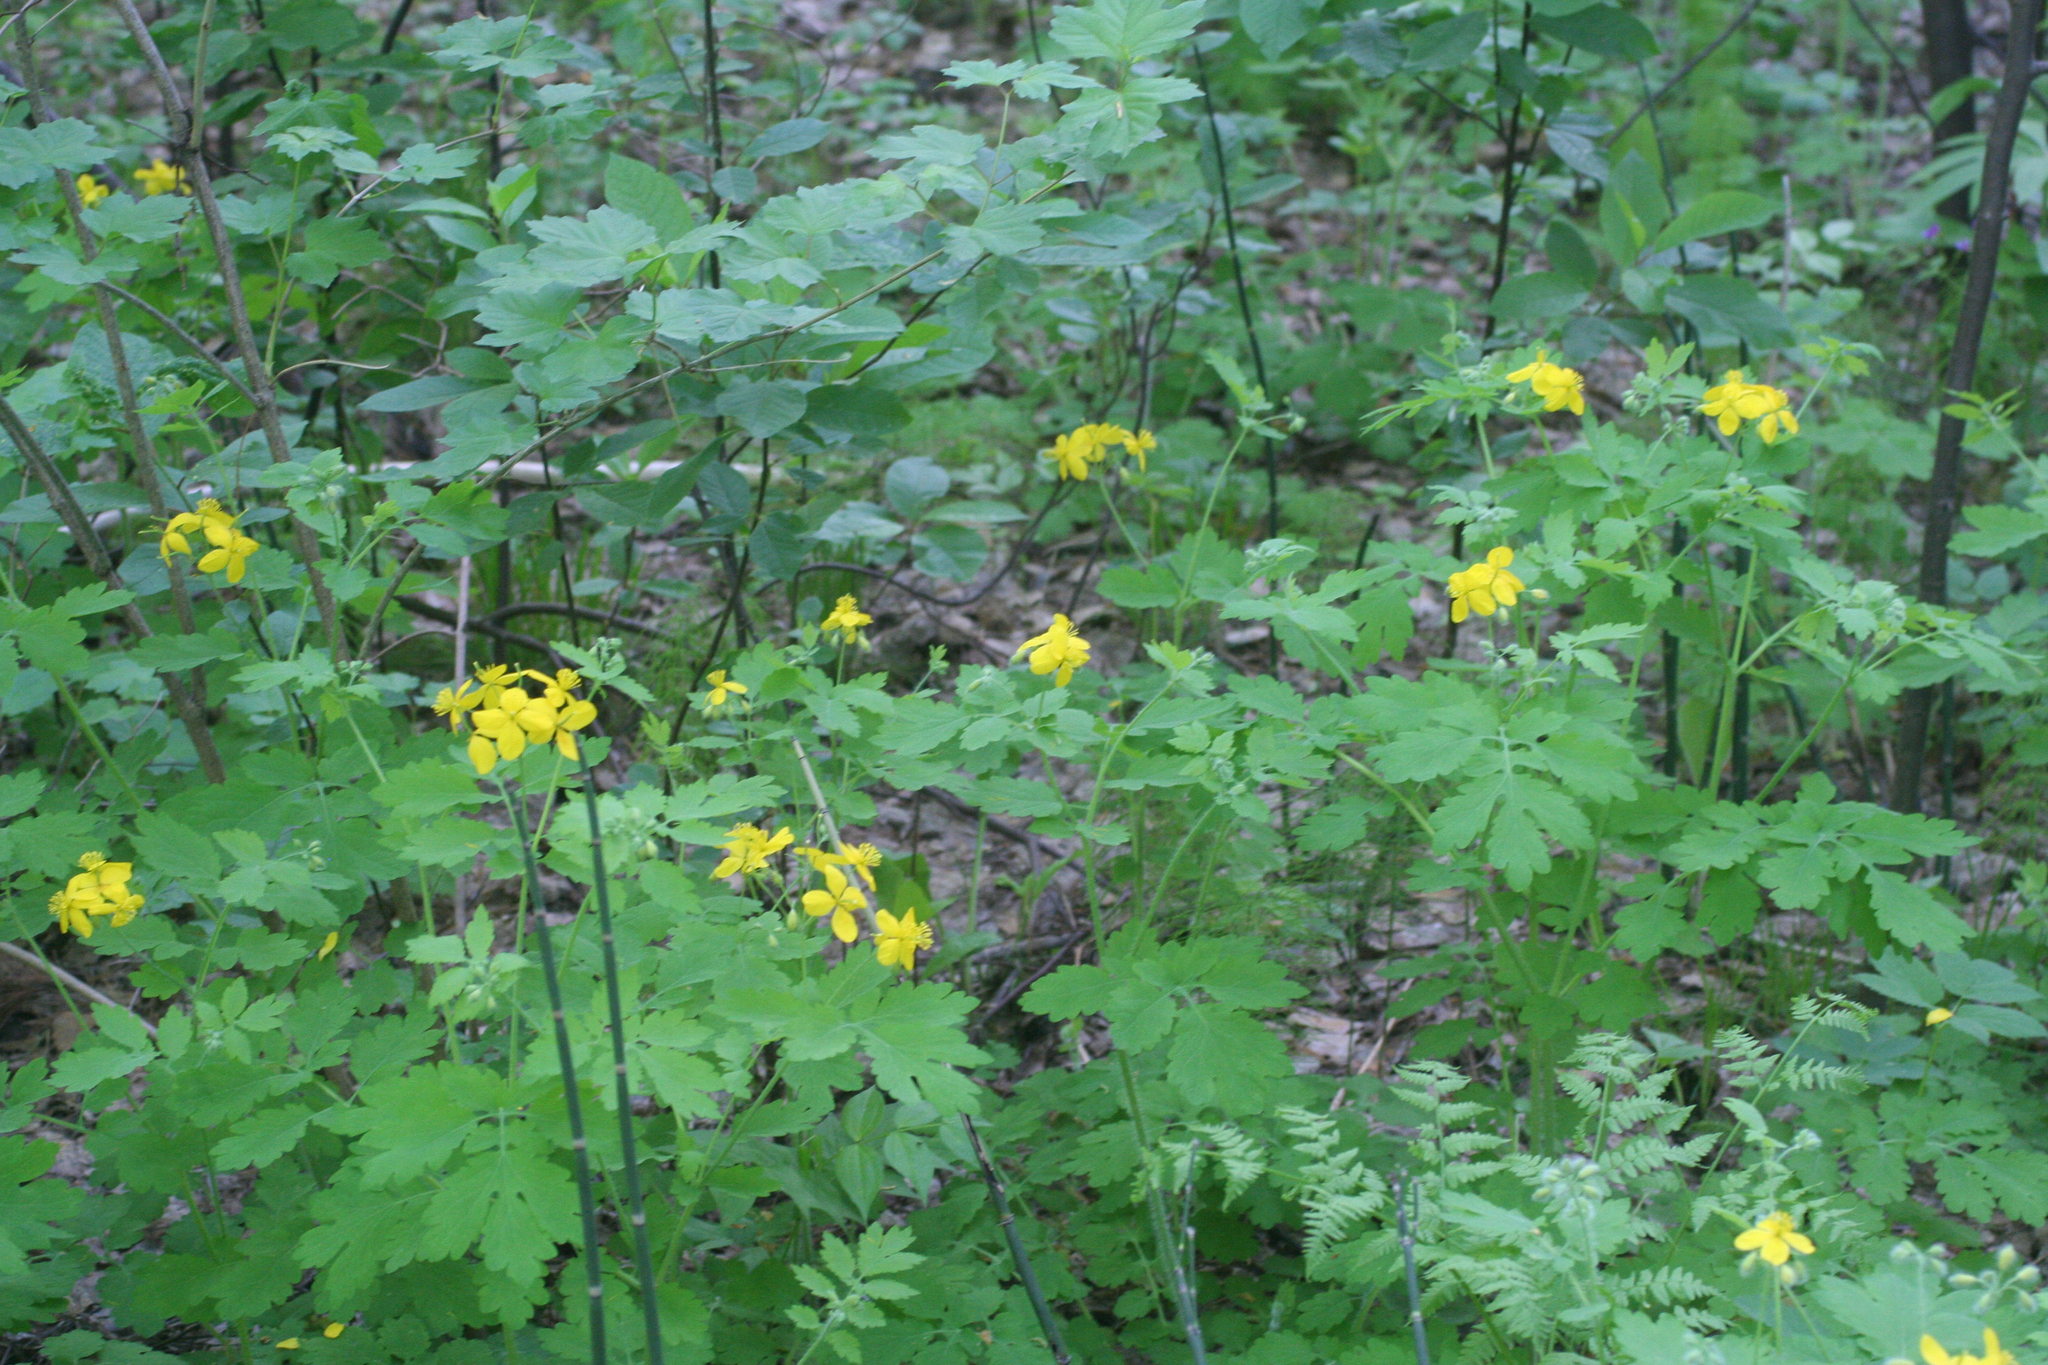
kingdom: Plantae
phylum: Tracheophyta
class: Magnoliopsida
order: Ranunculales
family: Papaveraceae
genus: Chelidonium
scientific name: Chelidonium majus
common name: Greater celandine
